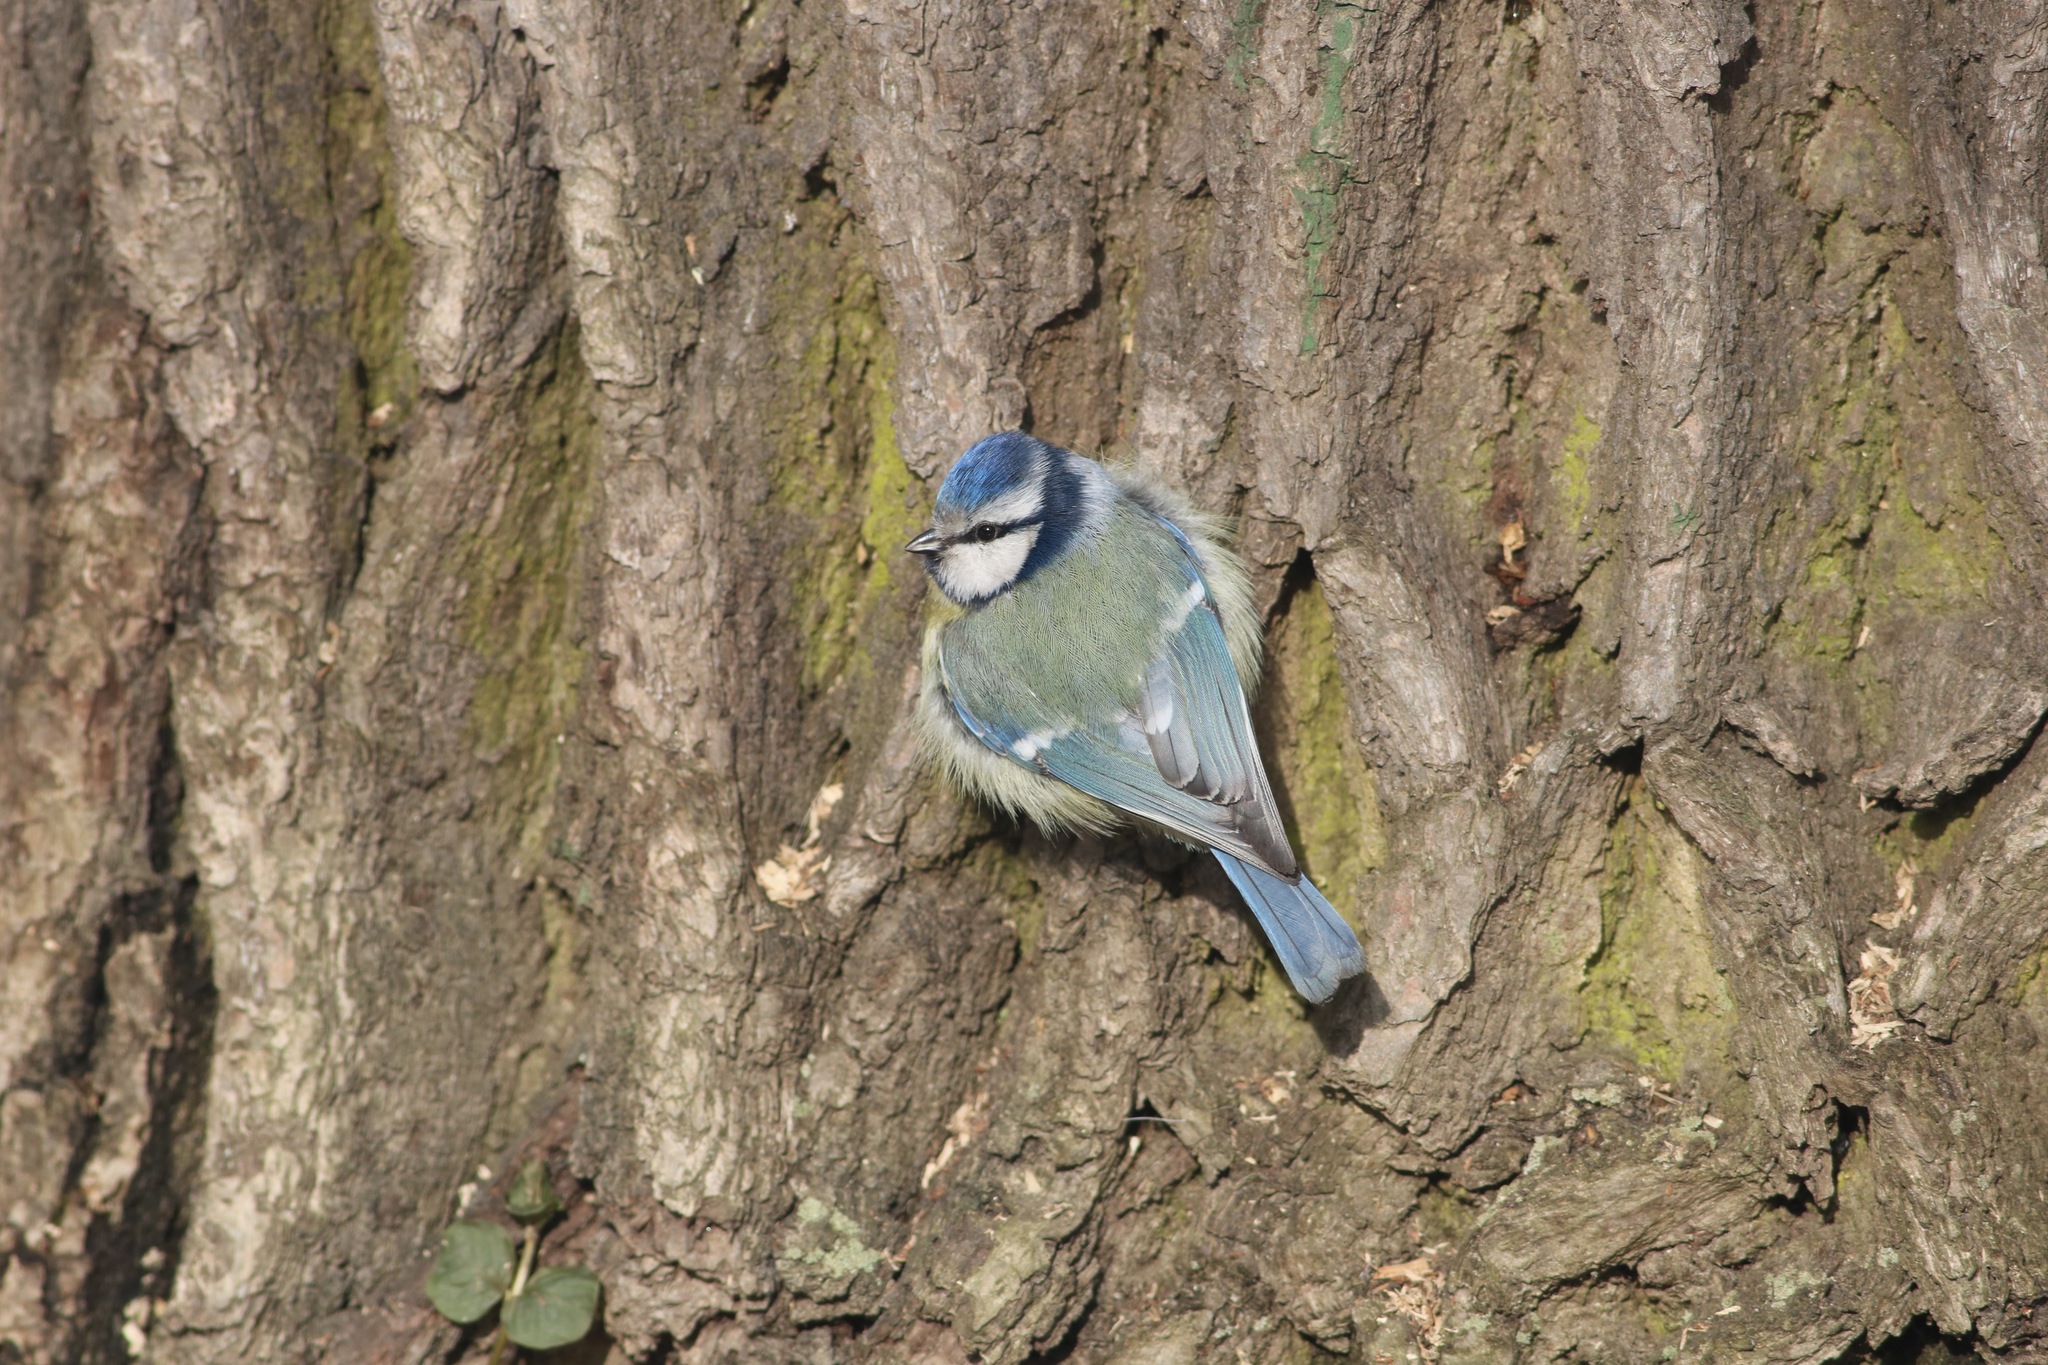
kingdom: Animalia
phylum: Chordata
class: Aves
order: Passeriformes
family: Paridae
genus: Cyanistes
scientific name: Cyanistes caeruleus
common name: Eurasian blue tit
